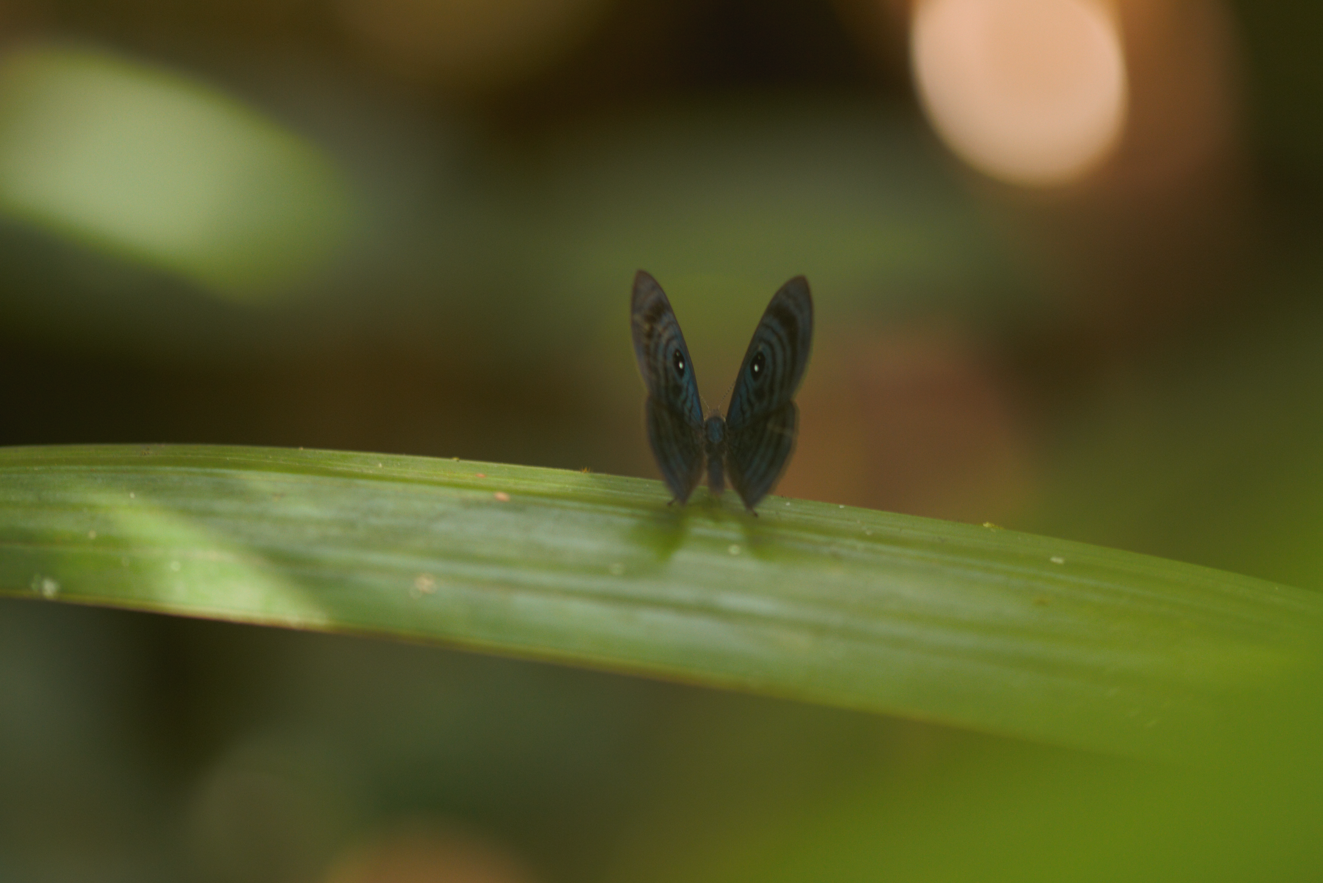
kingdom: Animalia
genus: Mesosemia
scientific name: Mesosemia antaerice
